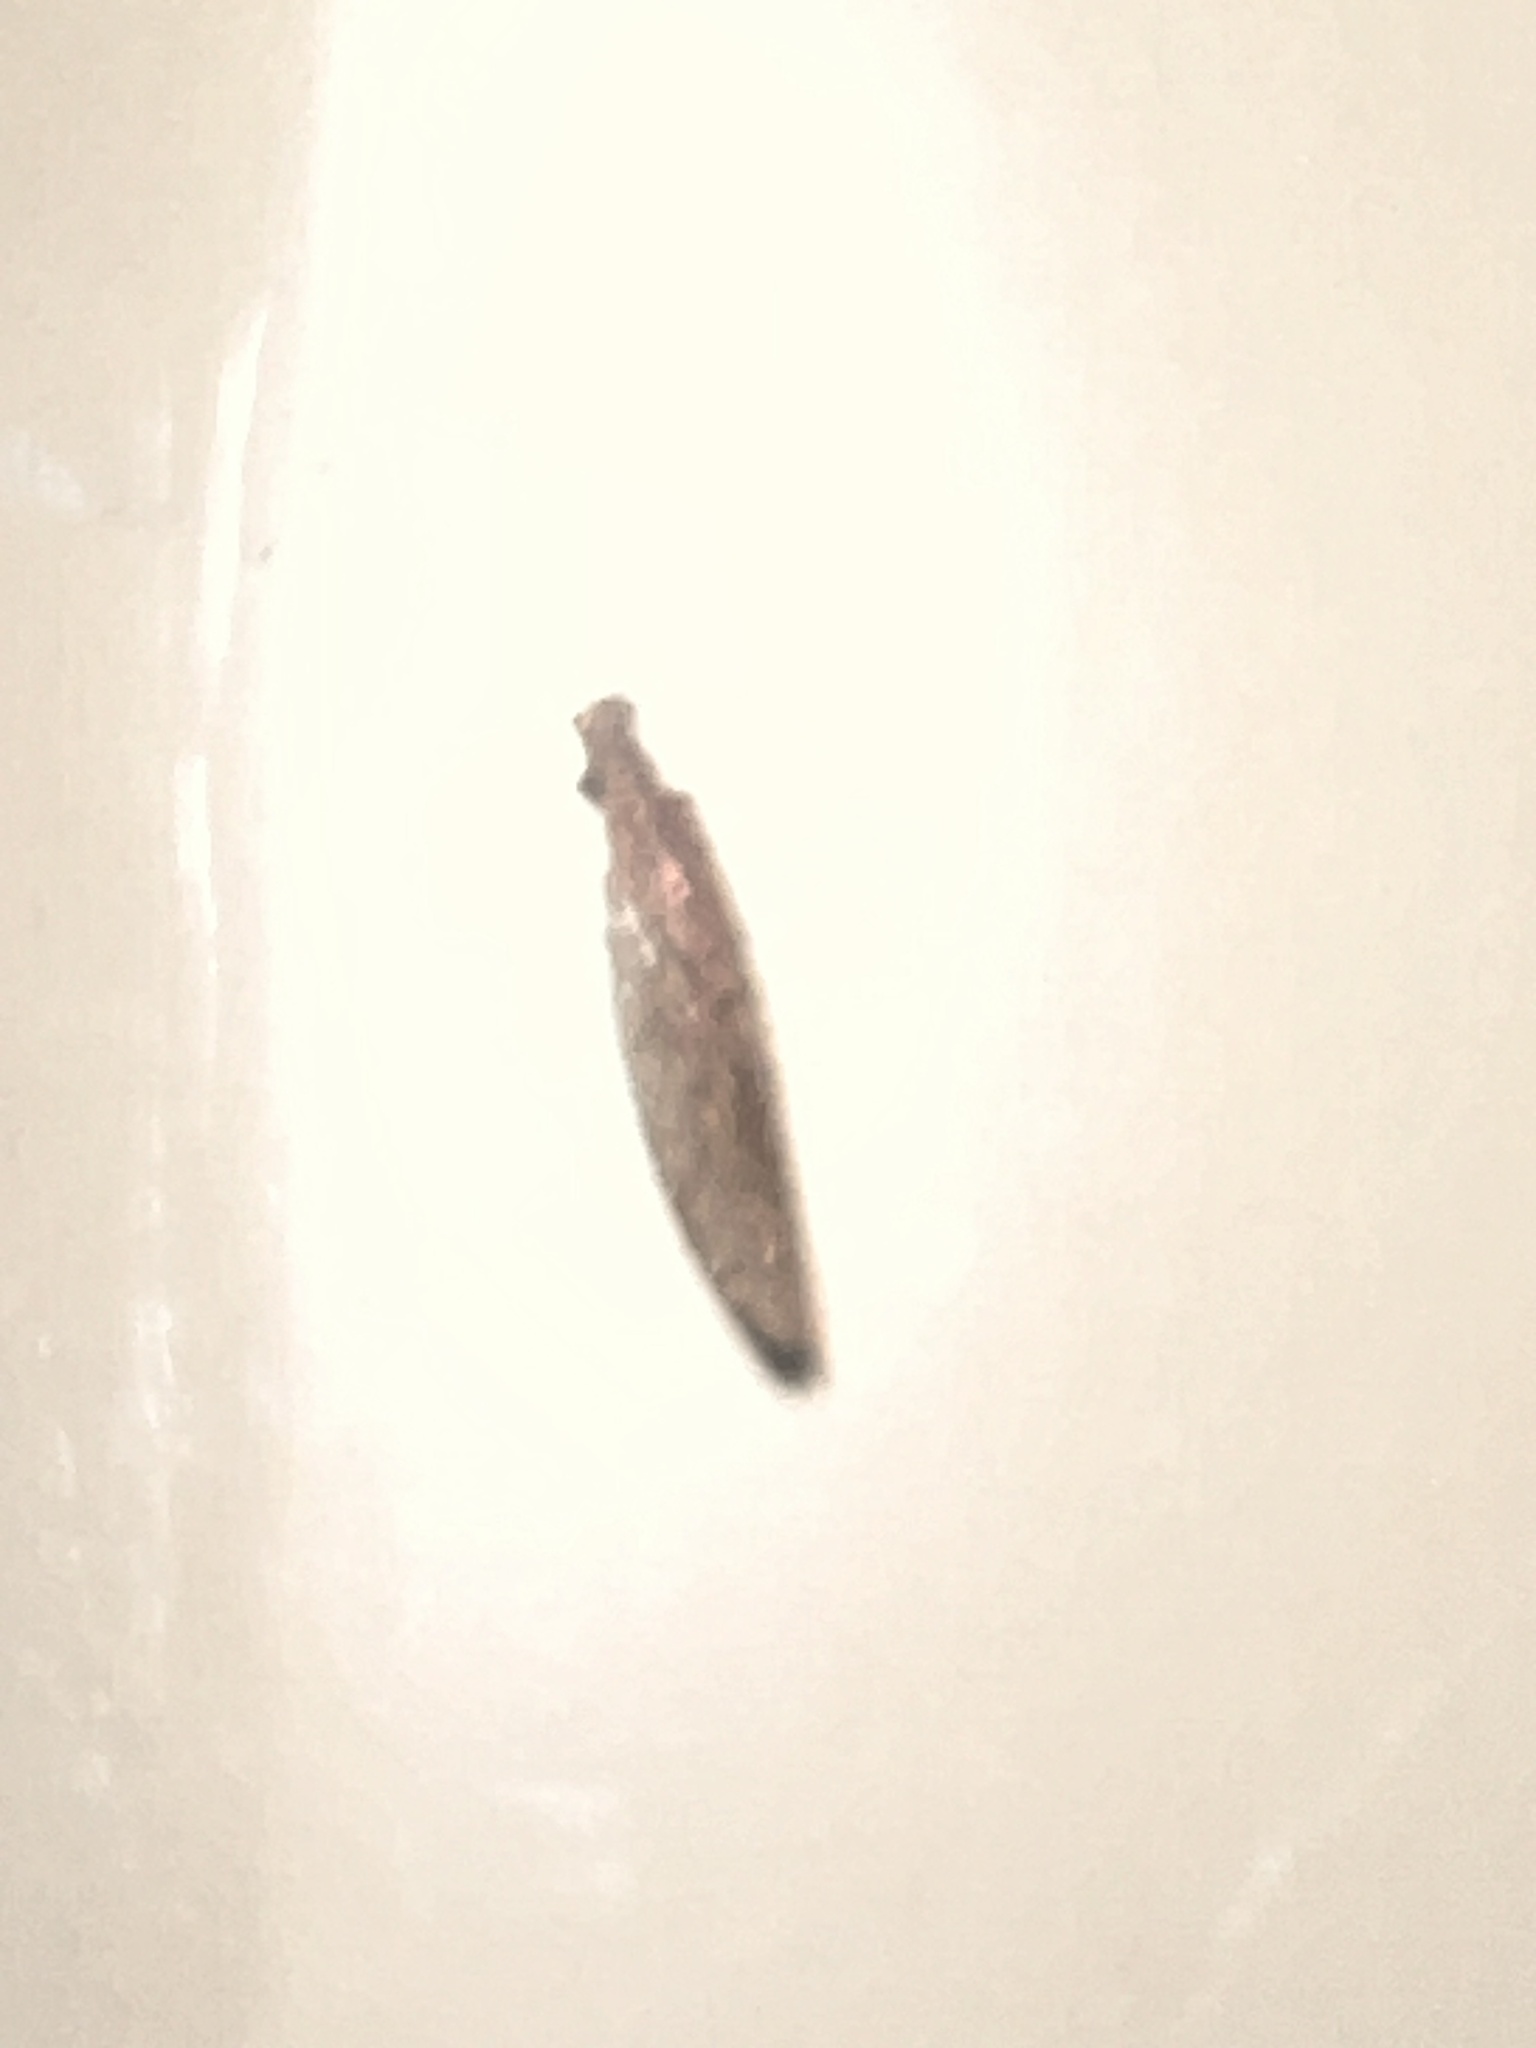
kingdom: Animalia
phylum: Arthropoda
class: Insecta
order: Neuroptera
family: Hemerobiidae
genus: Micromus
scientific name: Micromus tasmaniae
